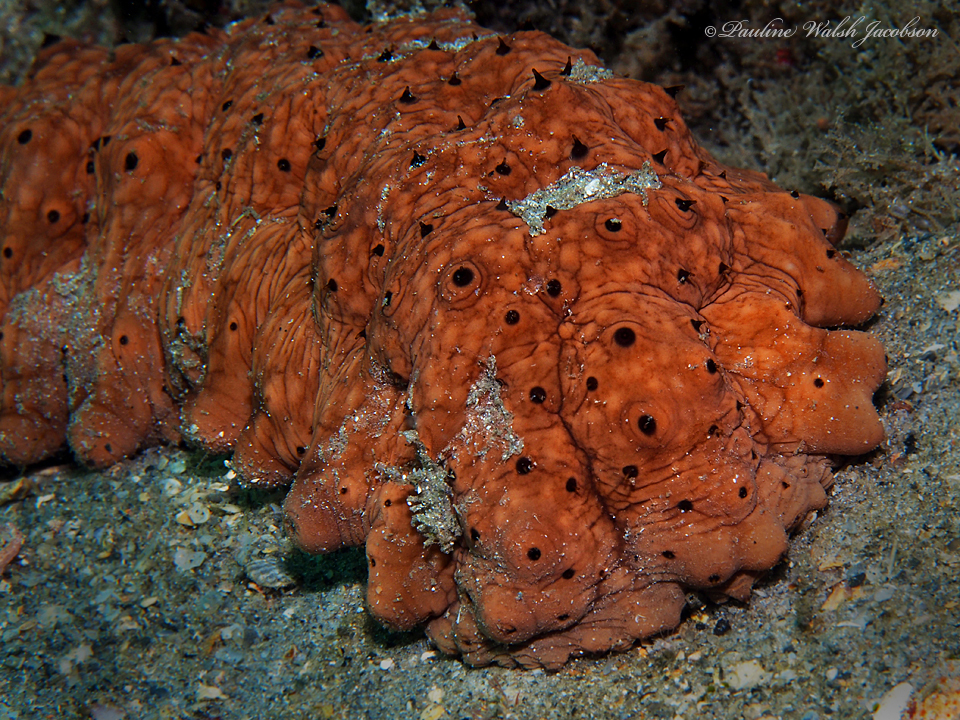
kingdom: Animalia
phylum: Echinodermata
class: Holothuroidea
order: Synallactida
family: Stichopodidae
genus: Isostichopus
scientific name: Isostichopus badionotus
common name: Chocolate chip cucumber
